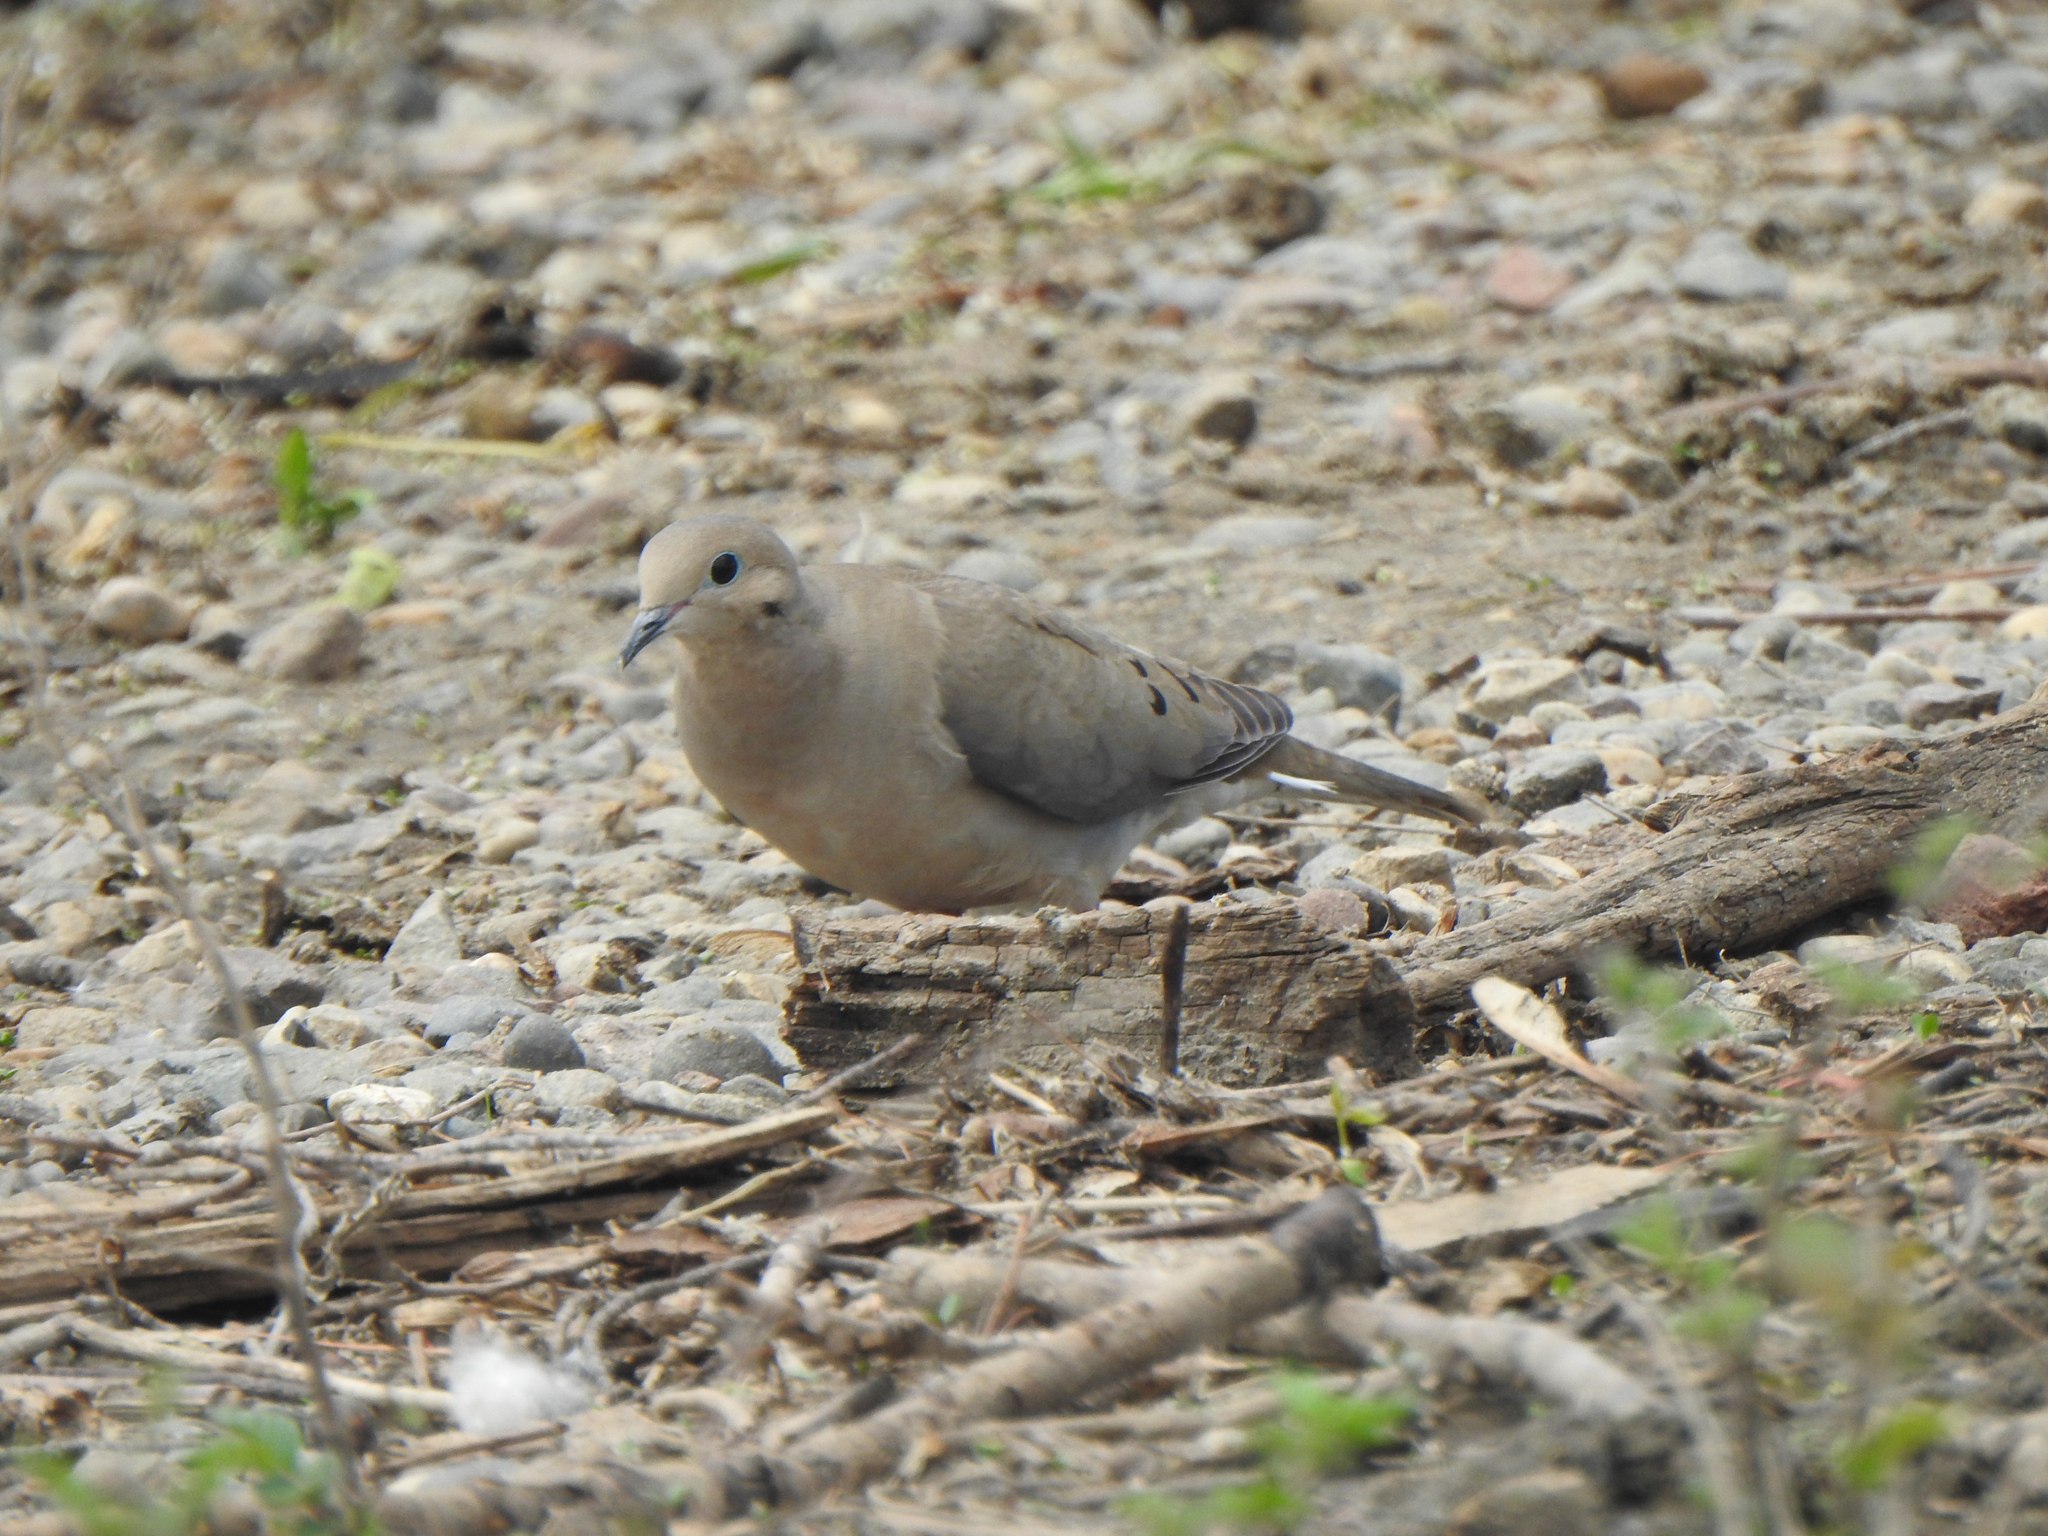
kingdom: Animalia
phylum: Chordata
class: Aves
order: Columbiformes
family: Columbidae
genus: Zenaida
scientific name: Zenaida macroura
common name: Mourning dove
